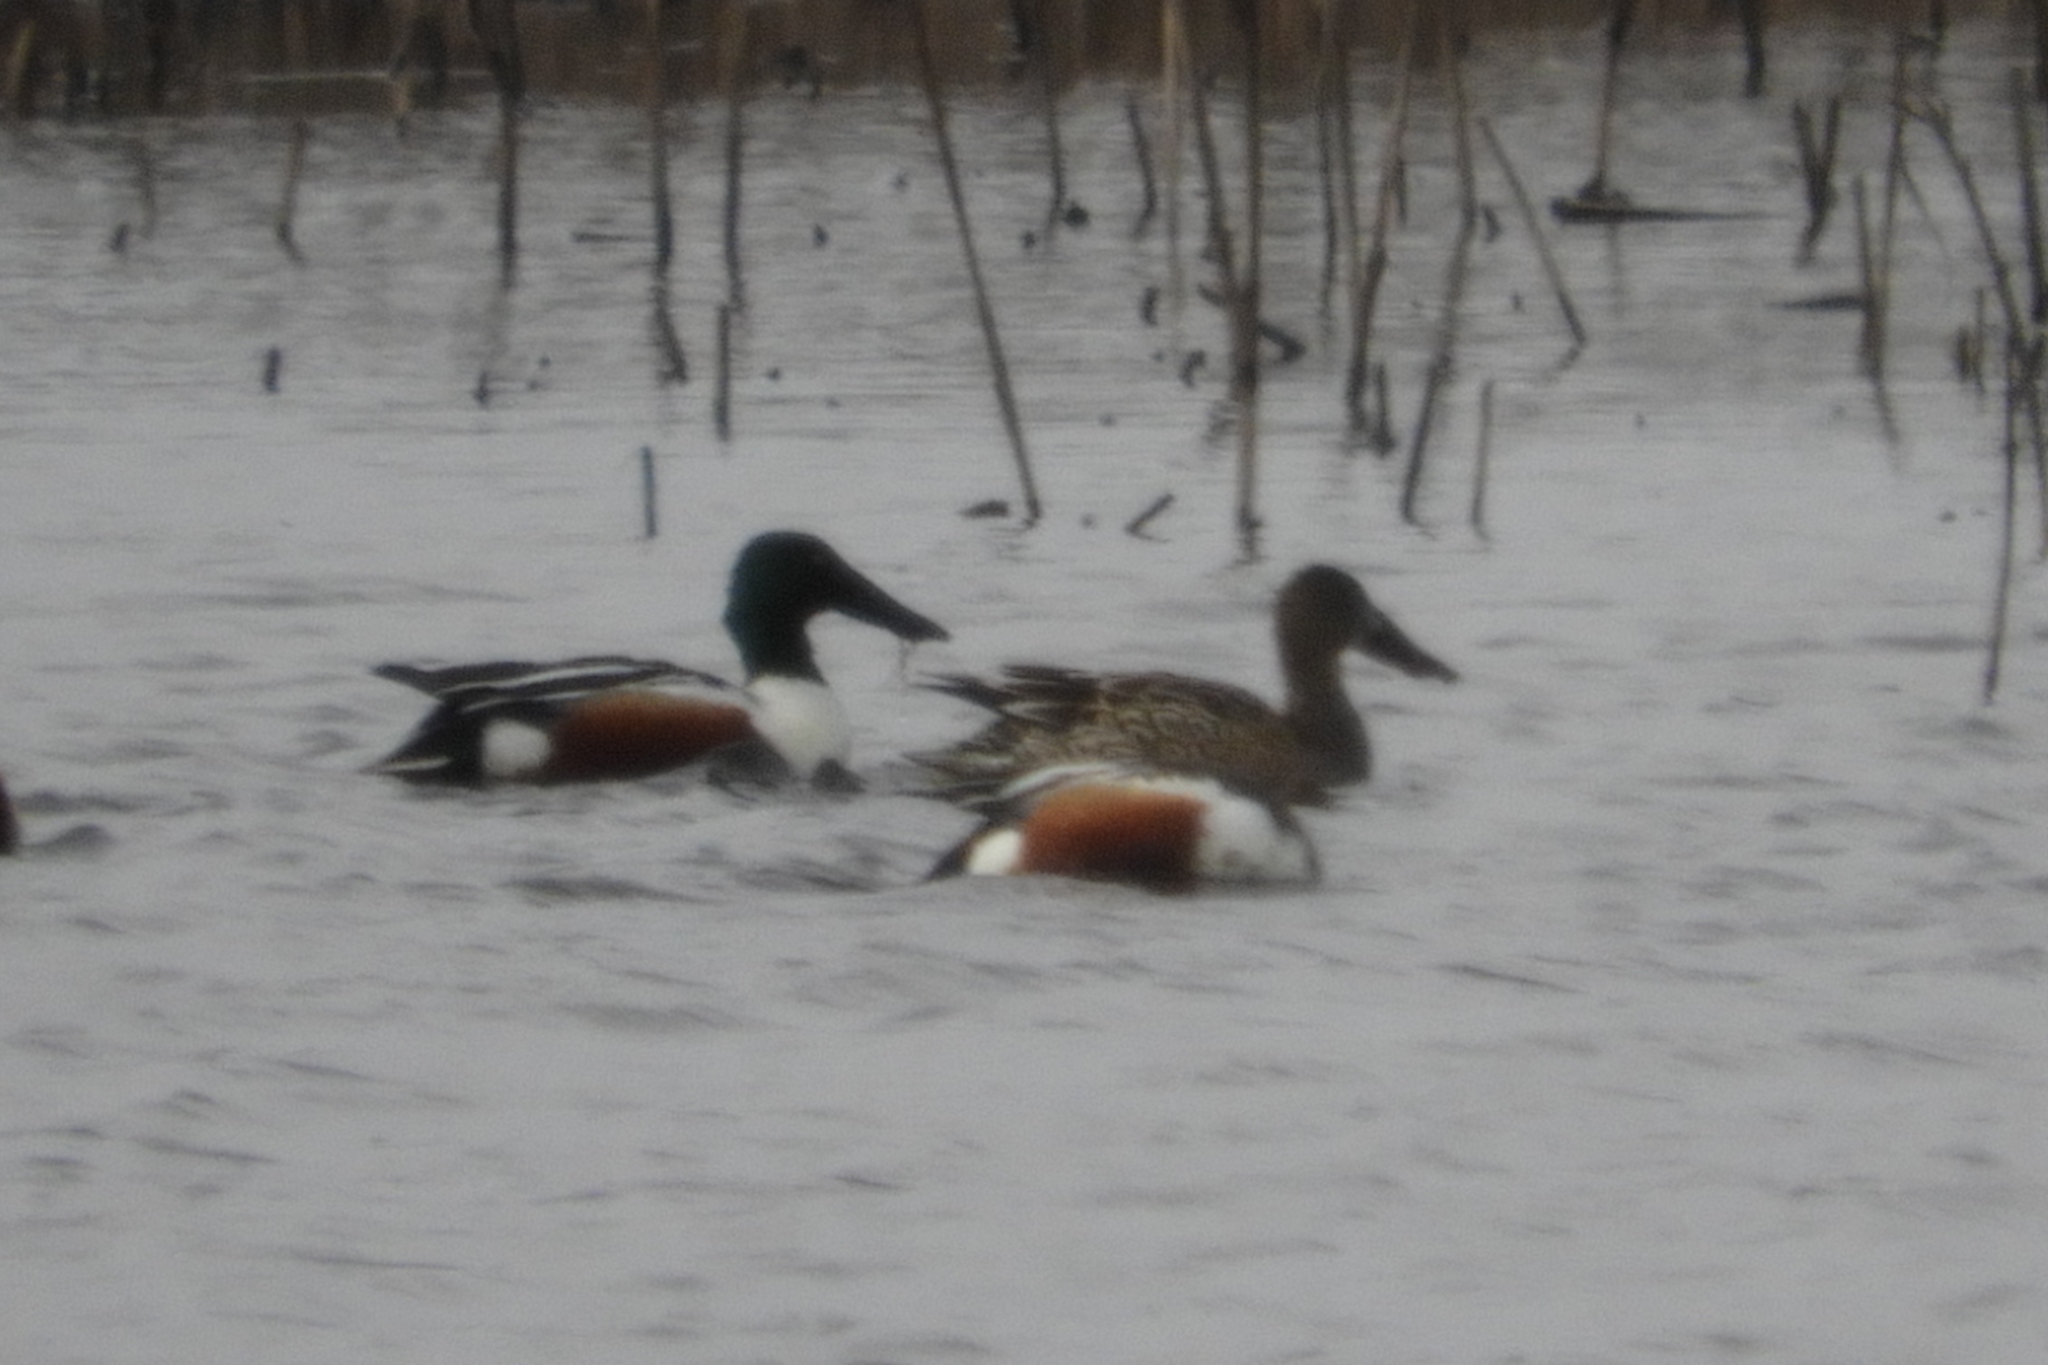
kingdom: Animalia
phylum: Chordata
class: Aves
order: Anseriformes
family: Anatidae
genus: Spatula
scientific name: Spatula clypeata
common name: Northern shoveler
